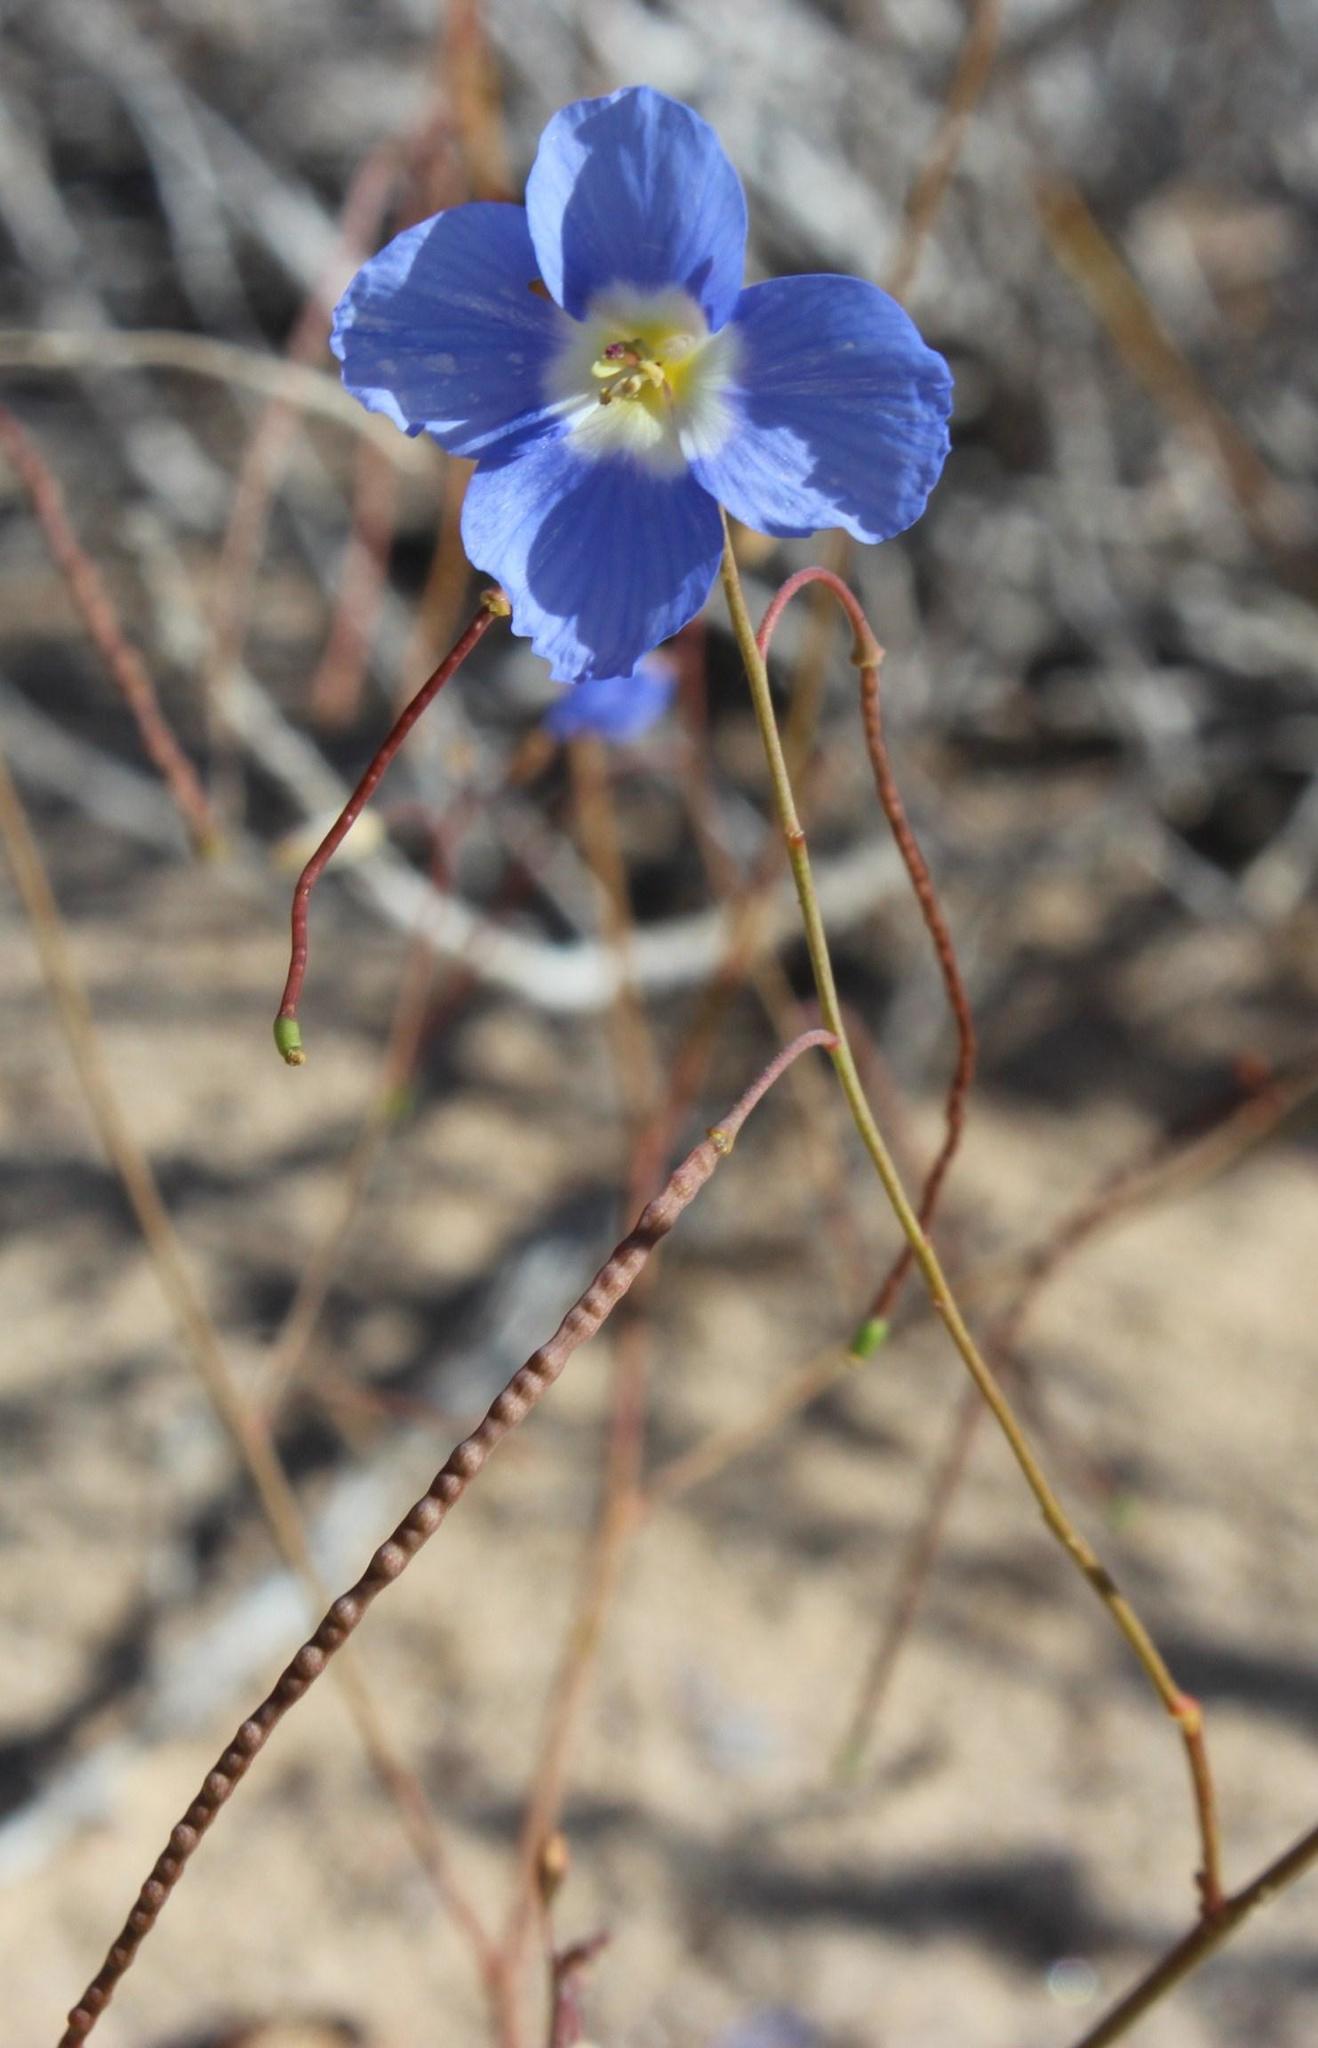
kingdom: Plantae
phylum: Tracheophyta
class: Magnoliopsida
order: Brassicales
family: Brassicaceae
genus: Heliophila
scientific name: Heliophila arenaria
